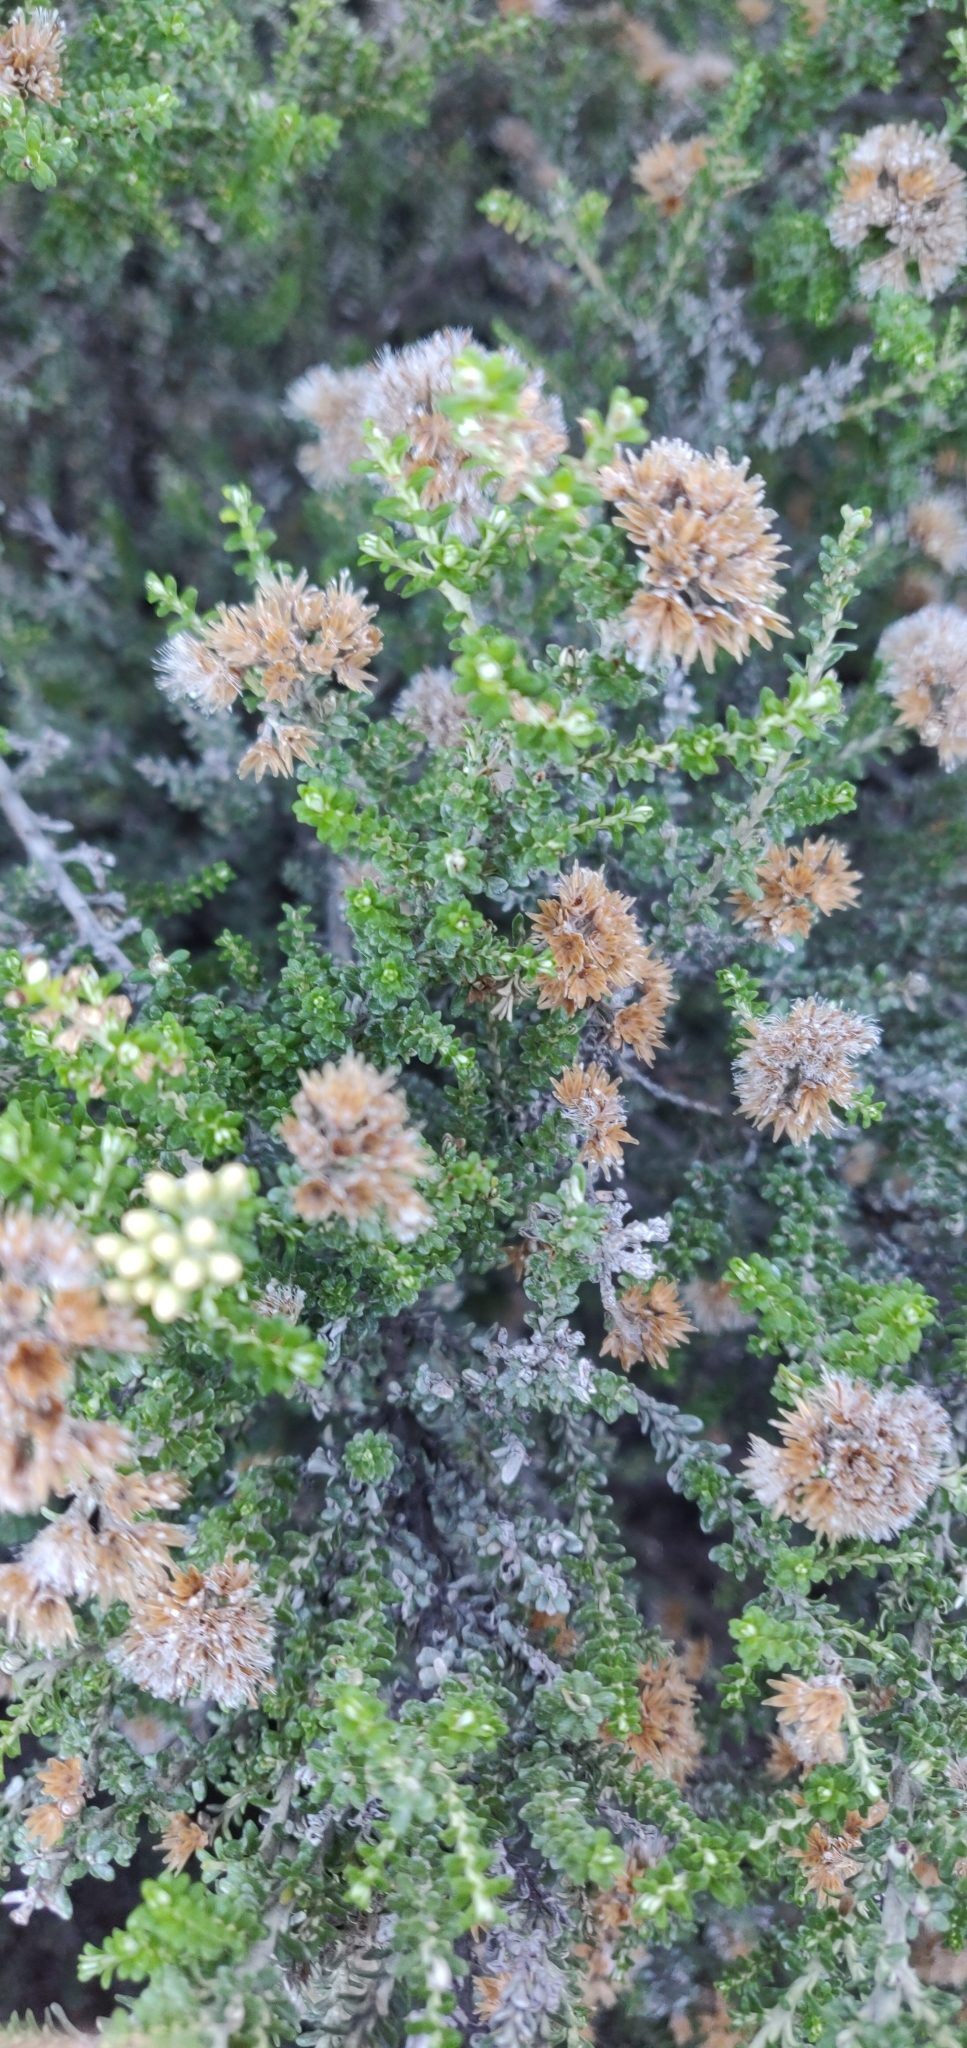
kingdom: Plantae
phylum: Tracheophyta
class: Magnoliopsida
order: Asterales
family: Asteraceae
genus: Ozothamnus
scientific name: Ozothamnus leptophyllus
